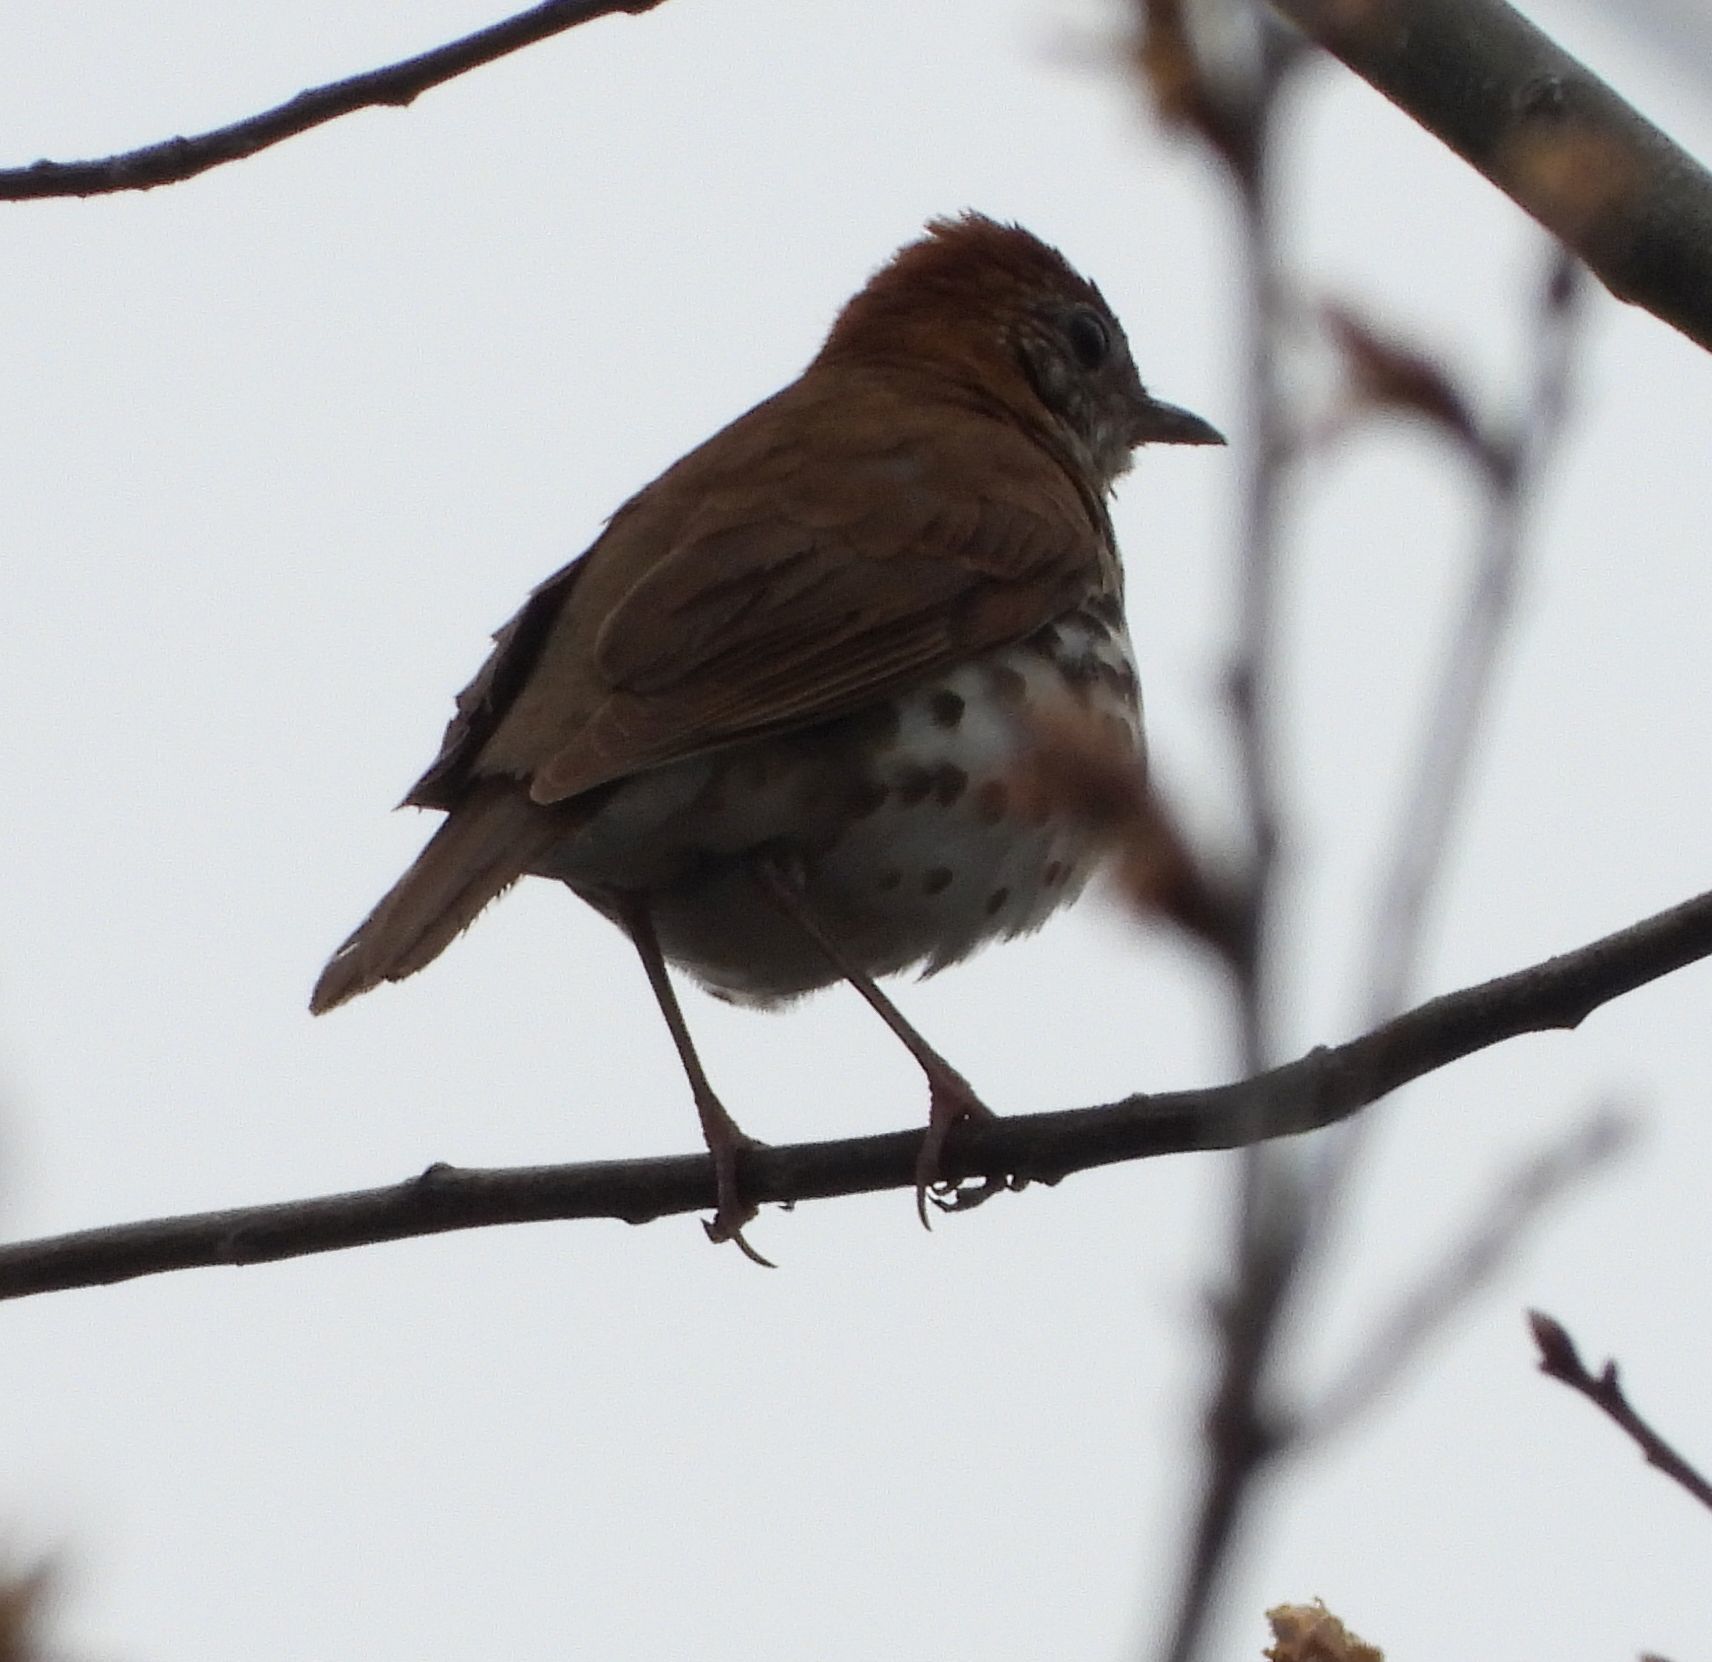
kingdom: Animalia
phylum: Chordata
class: Aves
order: Passeriformes
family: Turdidae
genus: Hylocichla
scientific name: Hylocichla mustelina
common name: Wood thrush
